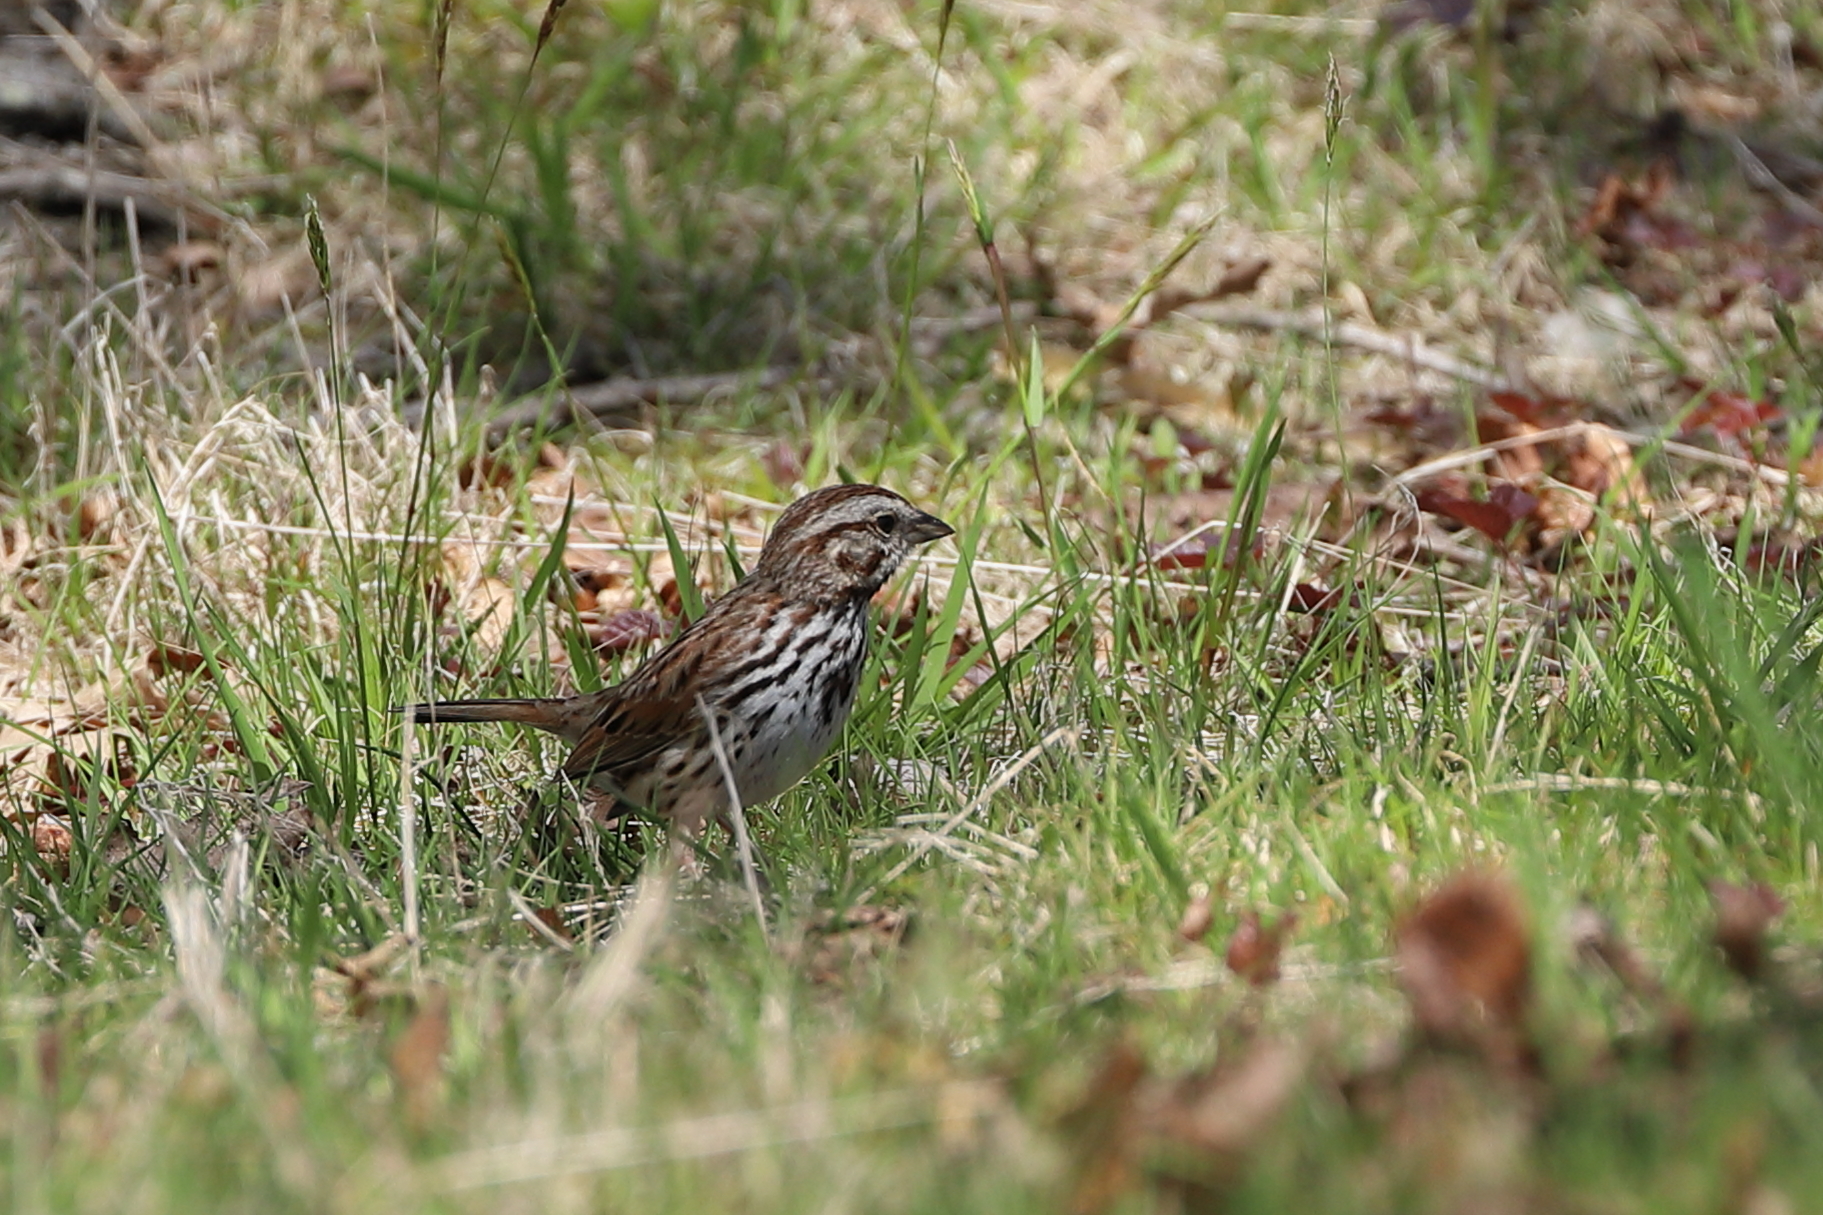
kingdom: Animalia
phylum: Chordata
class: Aves
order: Passeriformes
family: Passerellidae
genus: Melospiza
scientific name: Melospiza melodia
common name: Song sparrow
